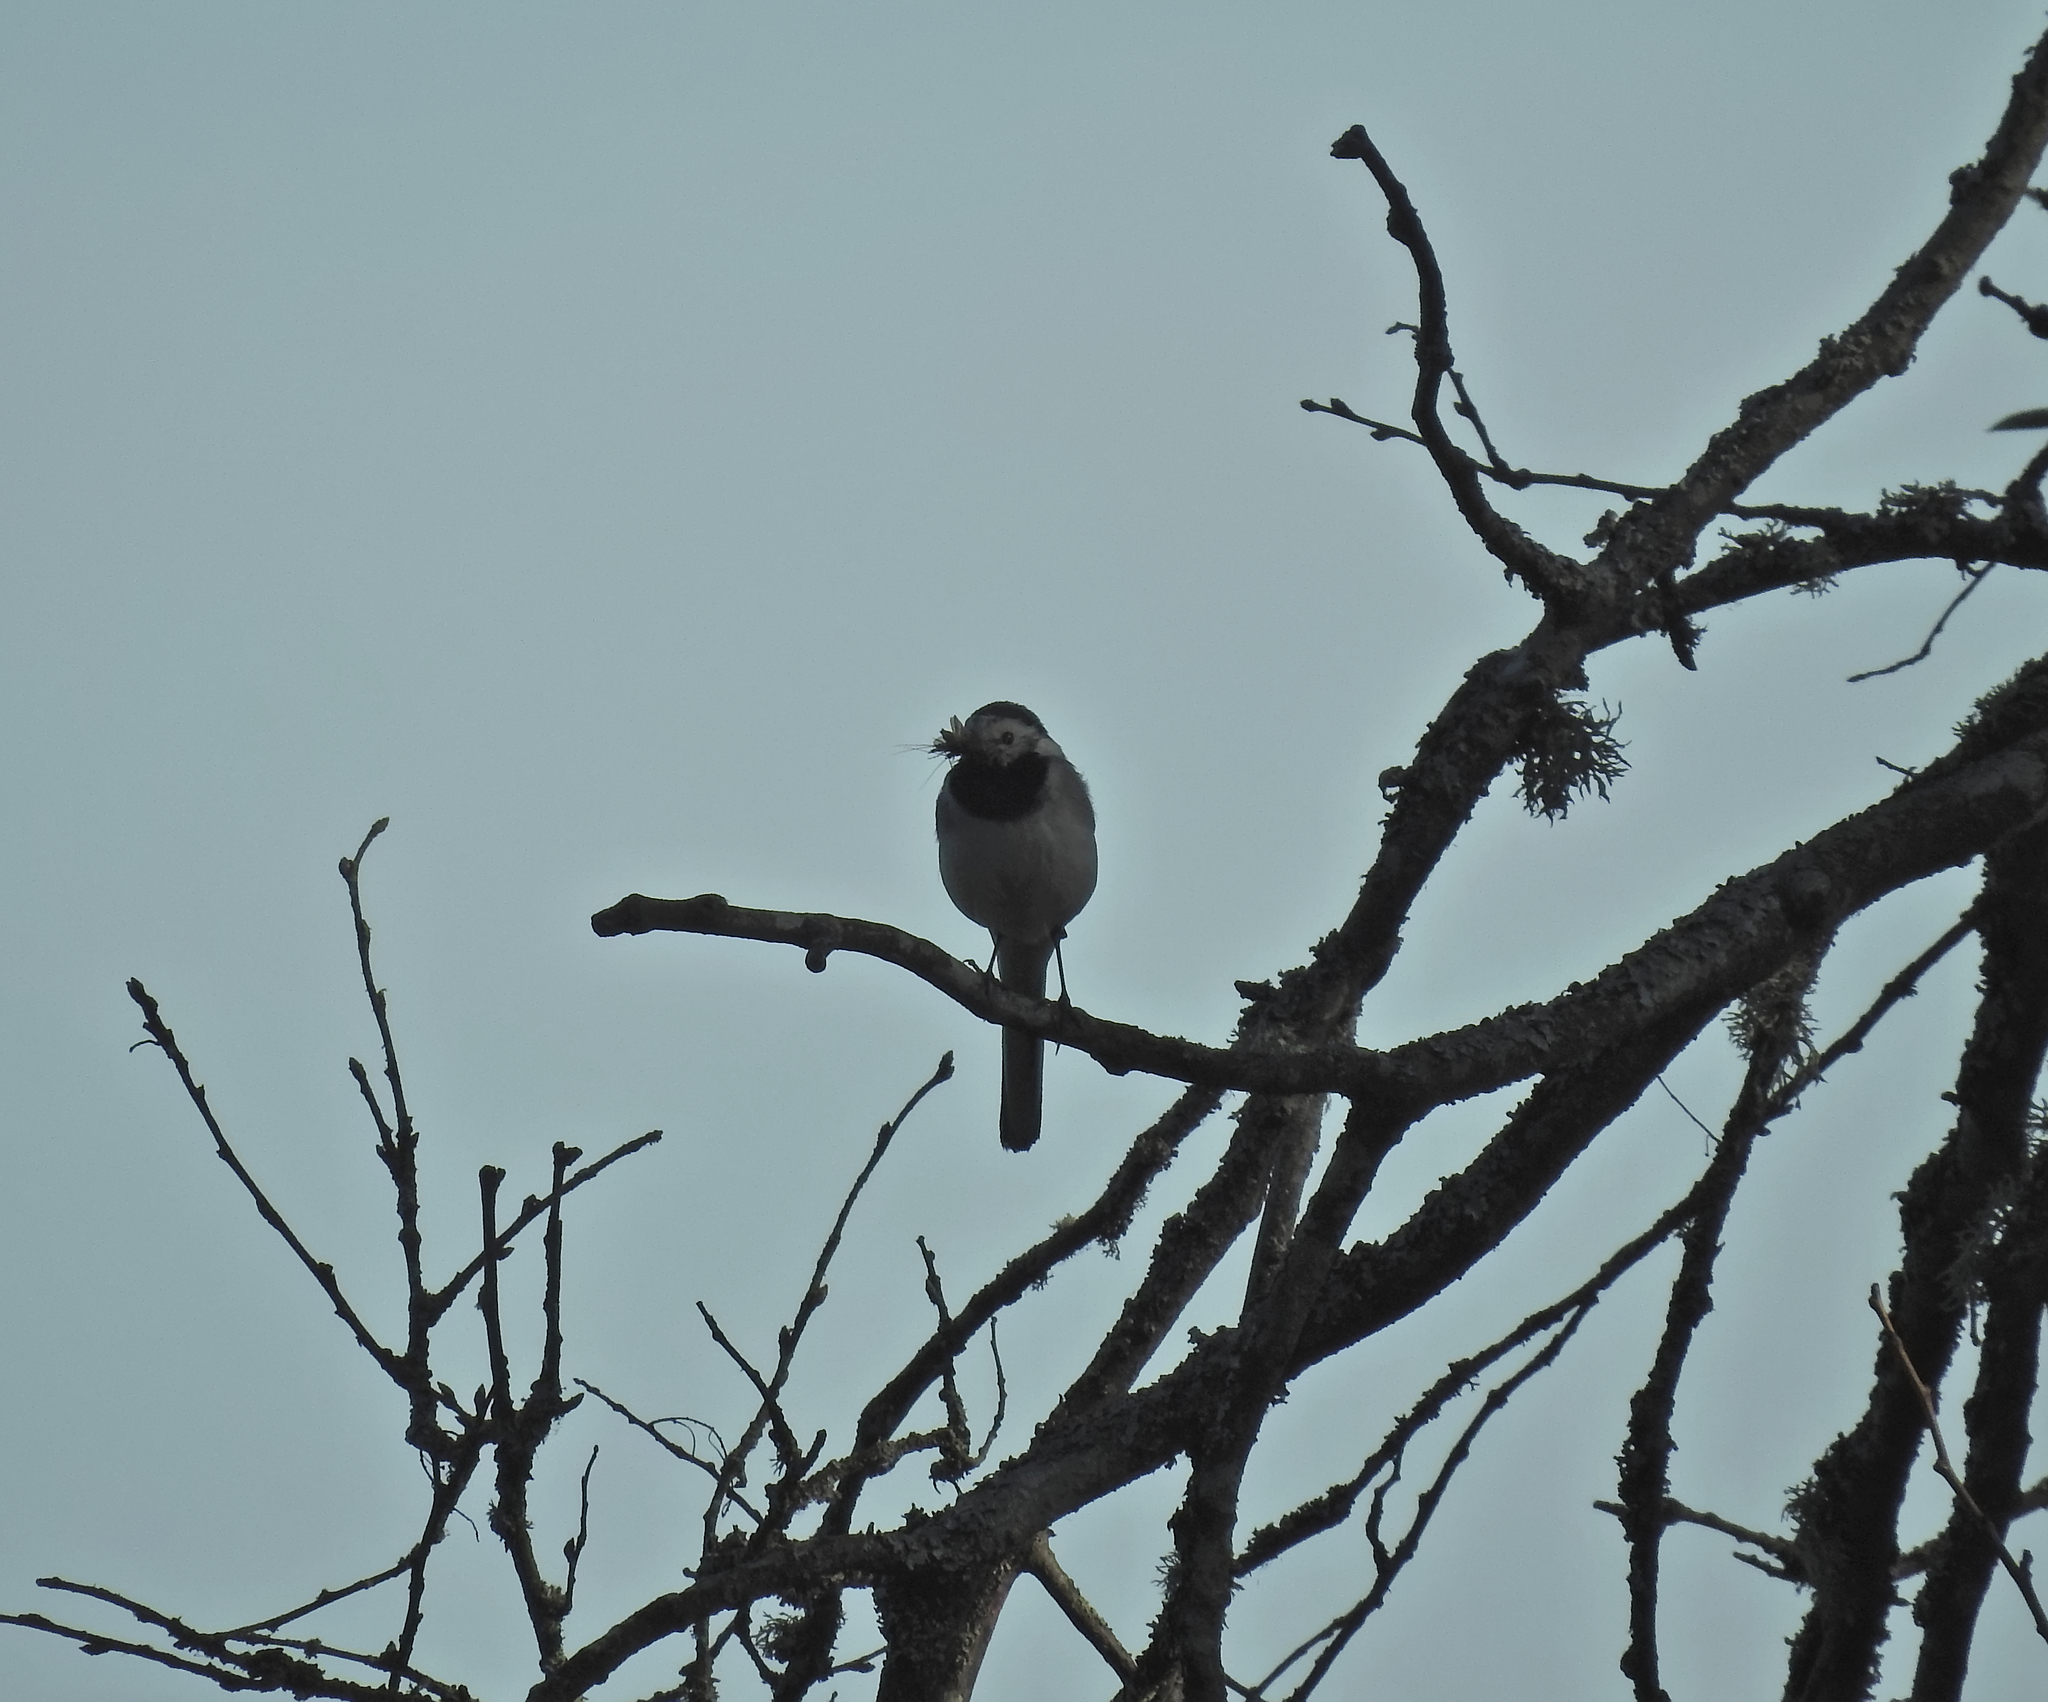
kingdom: Animalia
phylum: Chordata
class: Aves
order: Passeriformes
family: Motacillidae
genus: Motacilla
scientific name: Motacilla alba
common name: White wagtail
